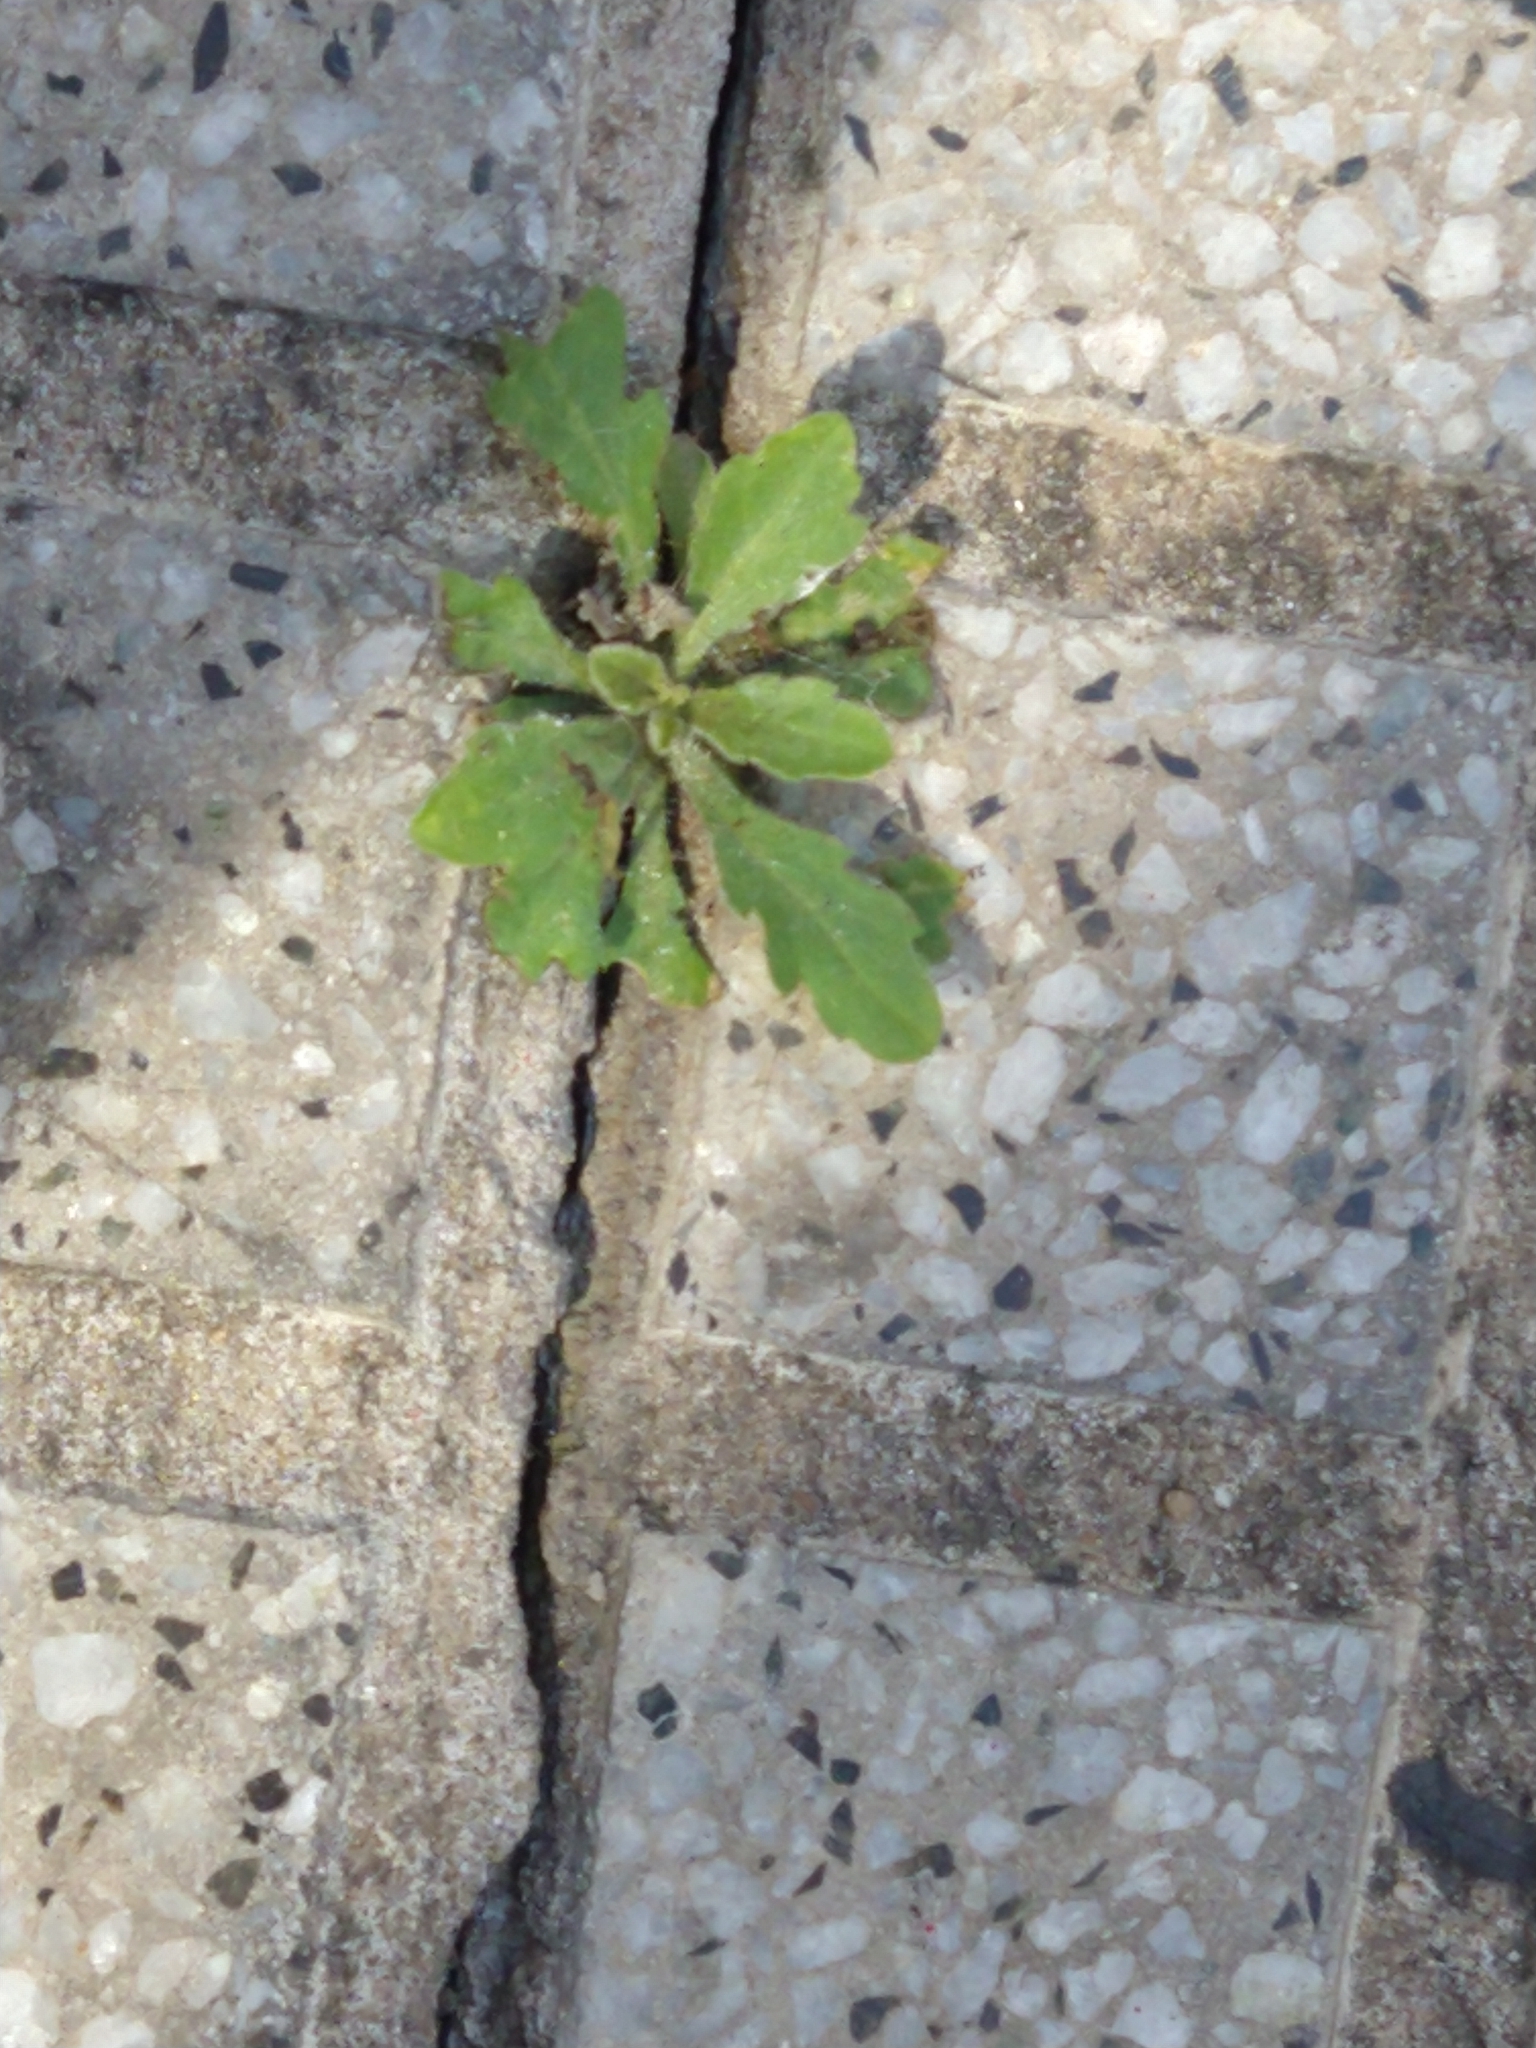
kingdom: Plantae
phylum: Tracheophyta
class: Magnoliopsida
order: Asterales
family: Asteraceae
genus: Erigeron
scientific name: Erigeron bonariensis
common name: Argentine fleabane
